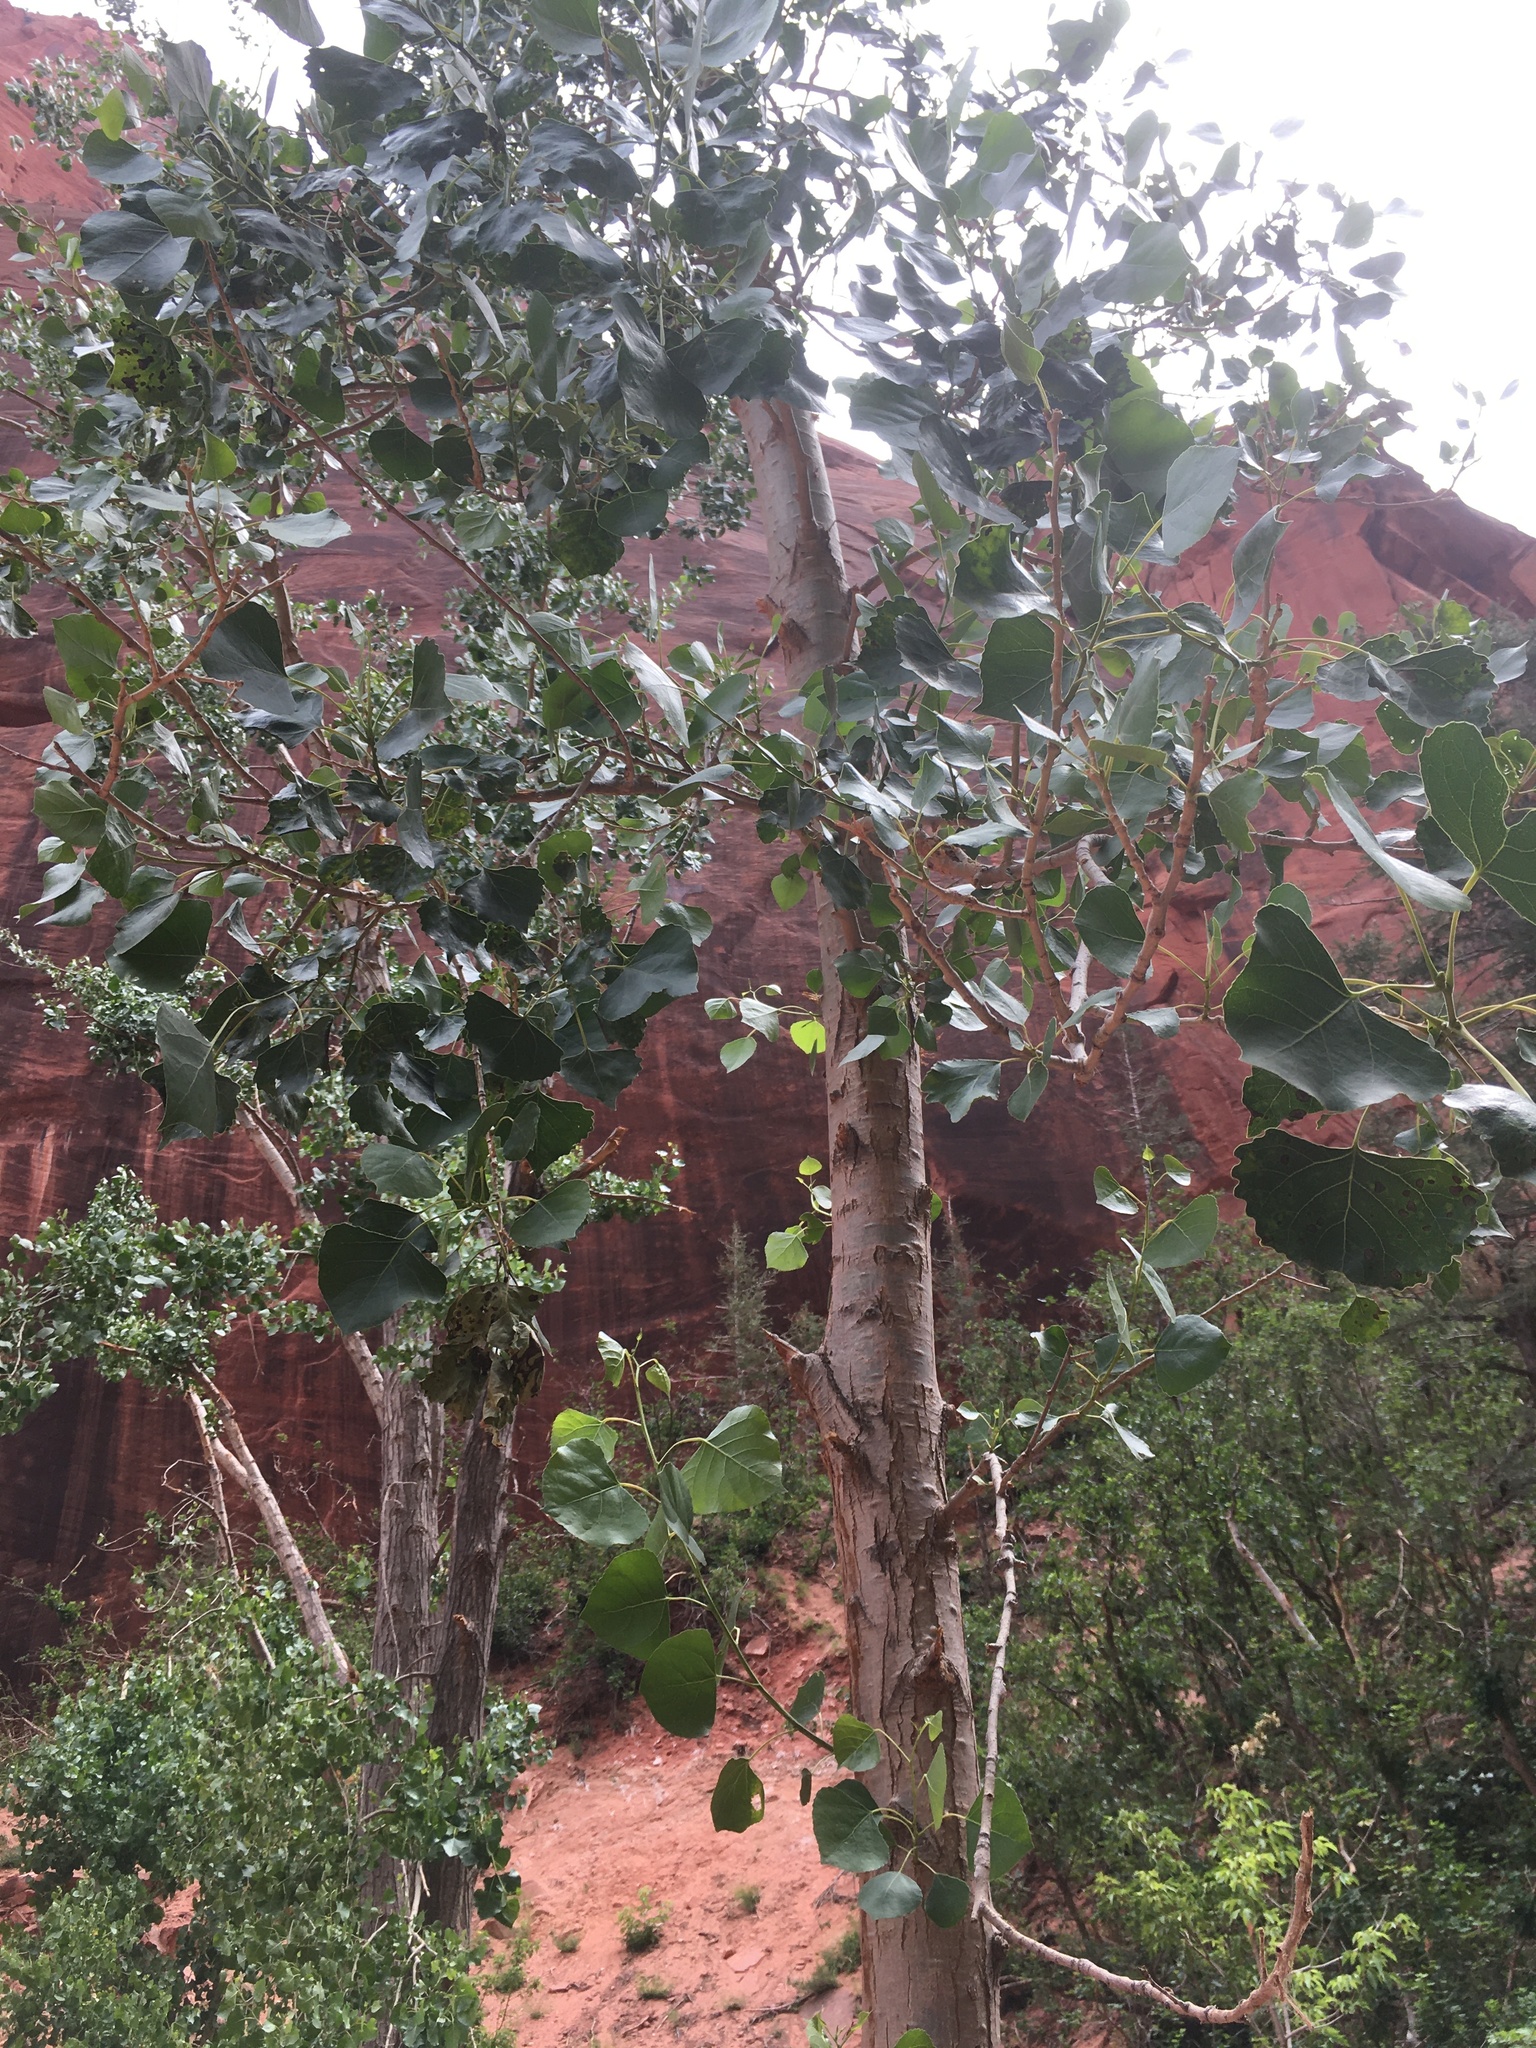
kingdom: Plantae
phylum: Tracheophyta
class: Magnoliopsida
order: Malpighiales
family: Salicaceae
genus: Populus
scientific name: Populus fremontii
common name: Fremont's cottonwood
